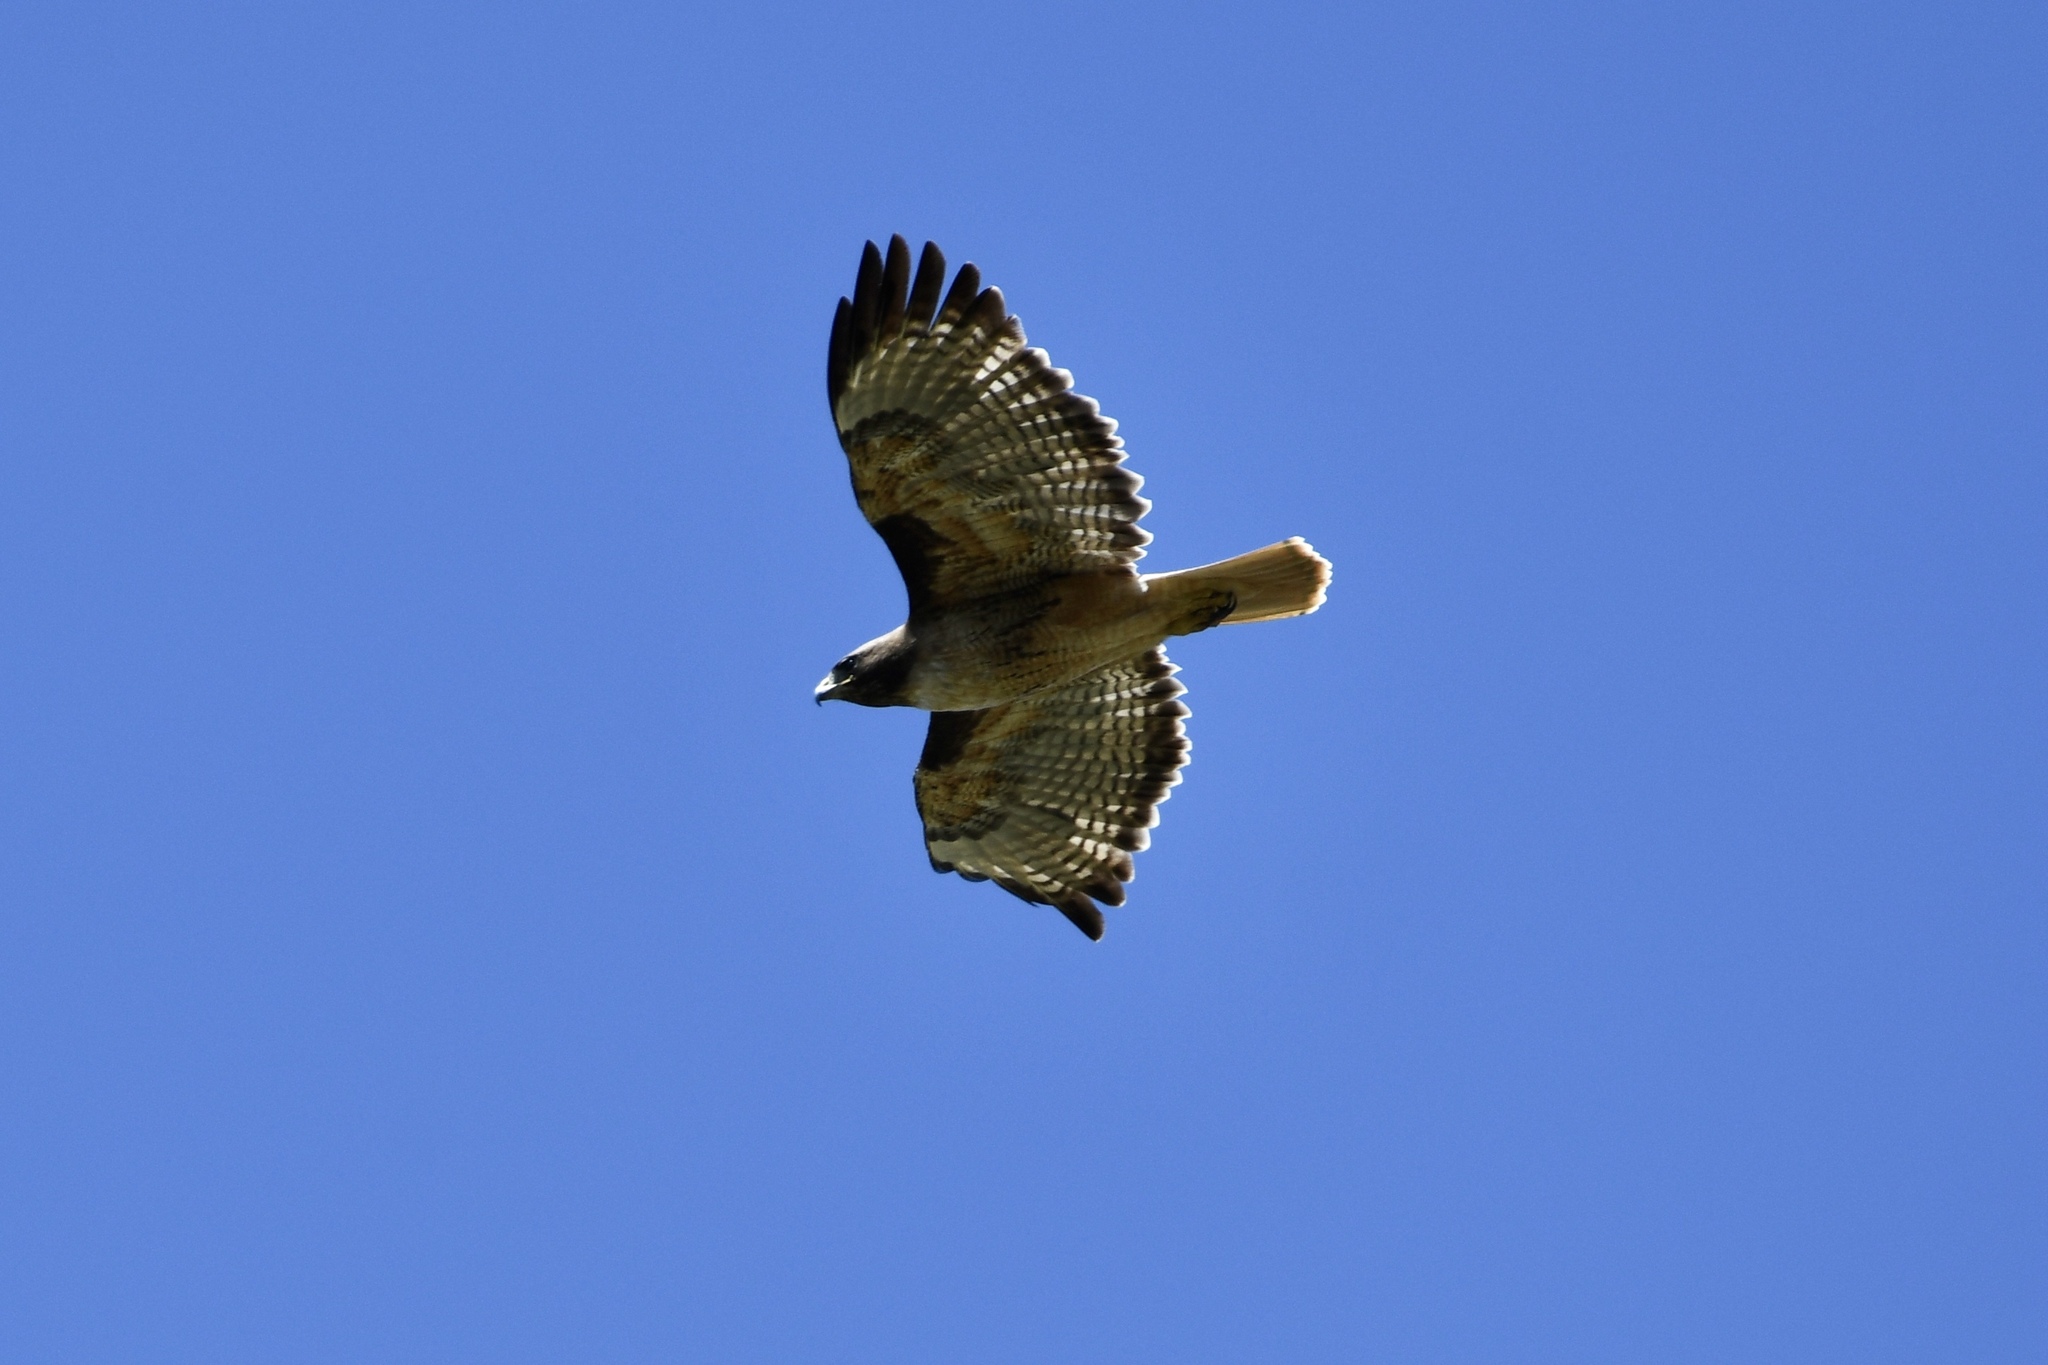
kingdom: Animalia
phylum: Chordata
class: Aves
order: Accipitriformes
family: Accipitridae
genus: Buteo
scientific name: Buteo jamaicensis
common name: Red-tailed hawk
